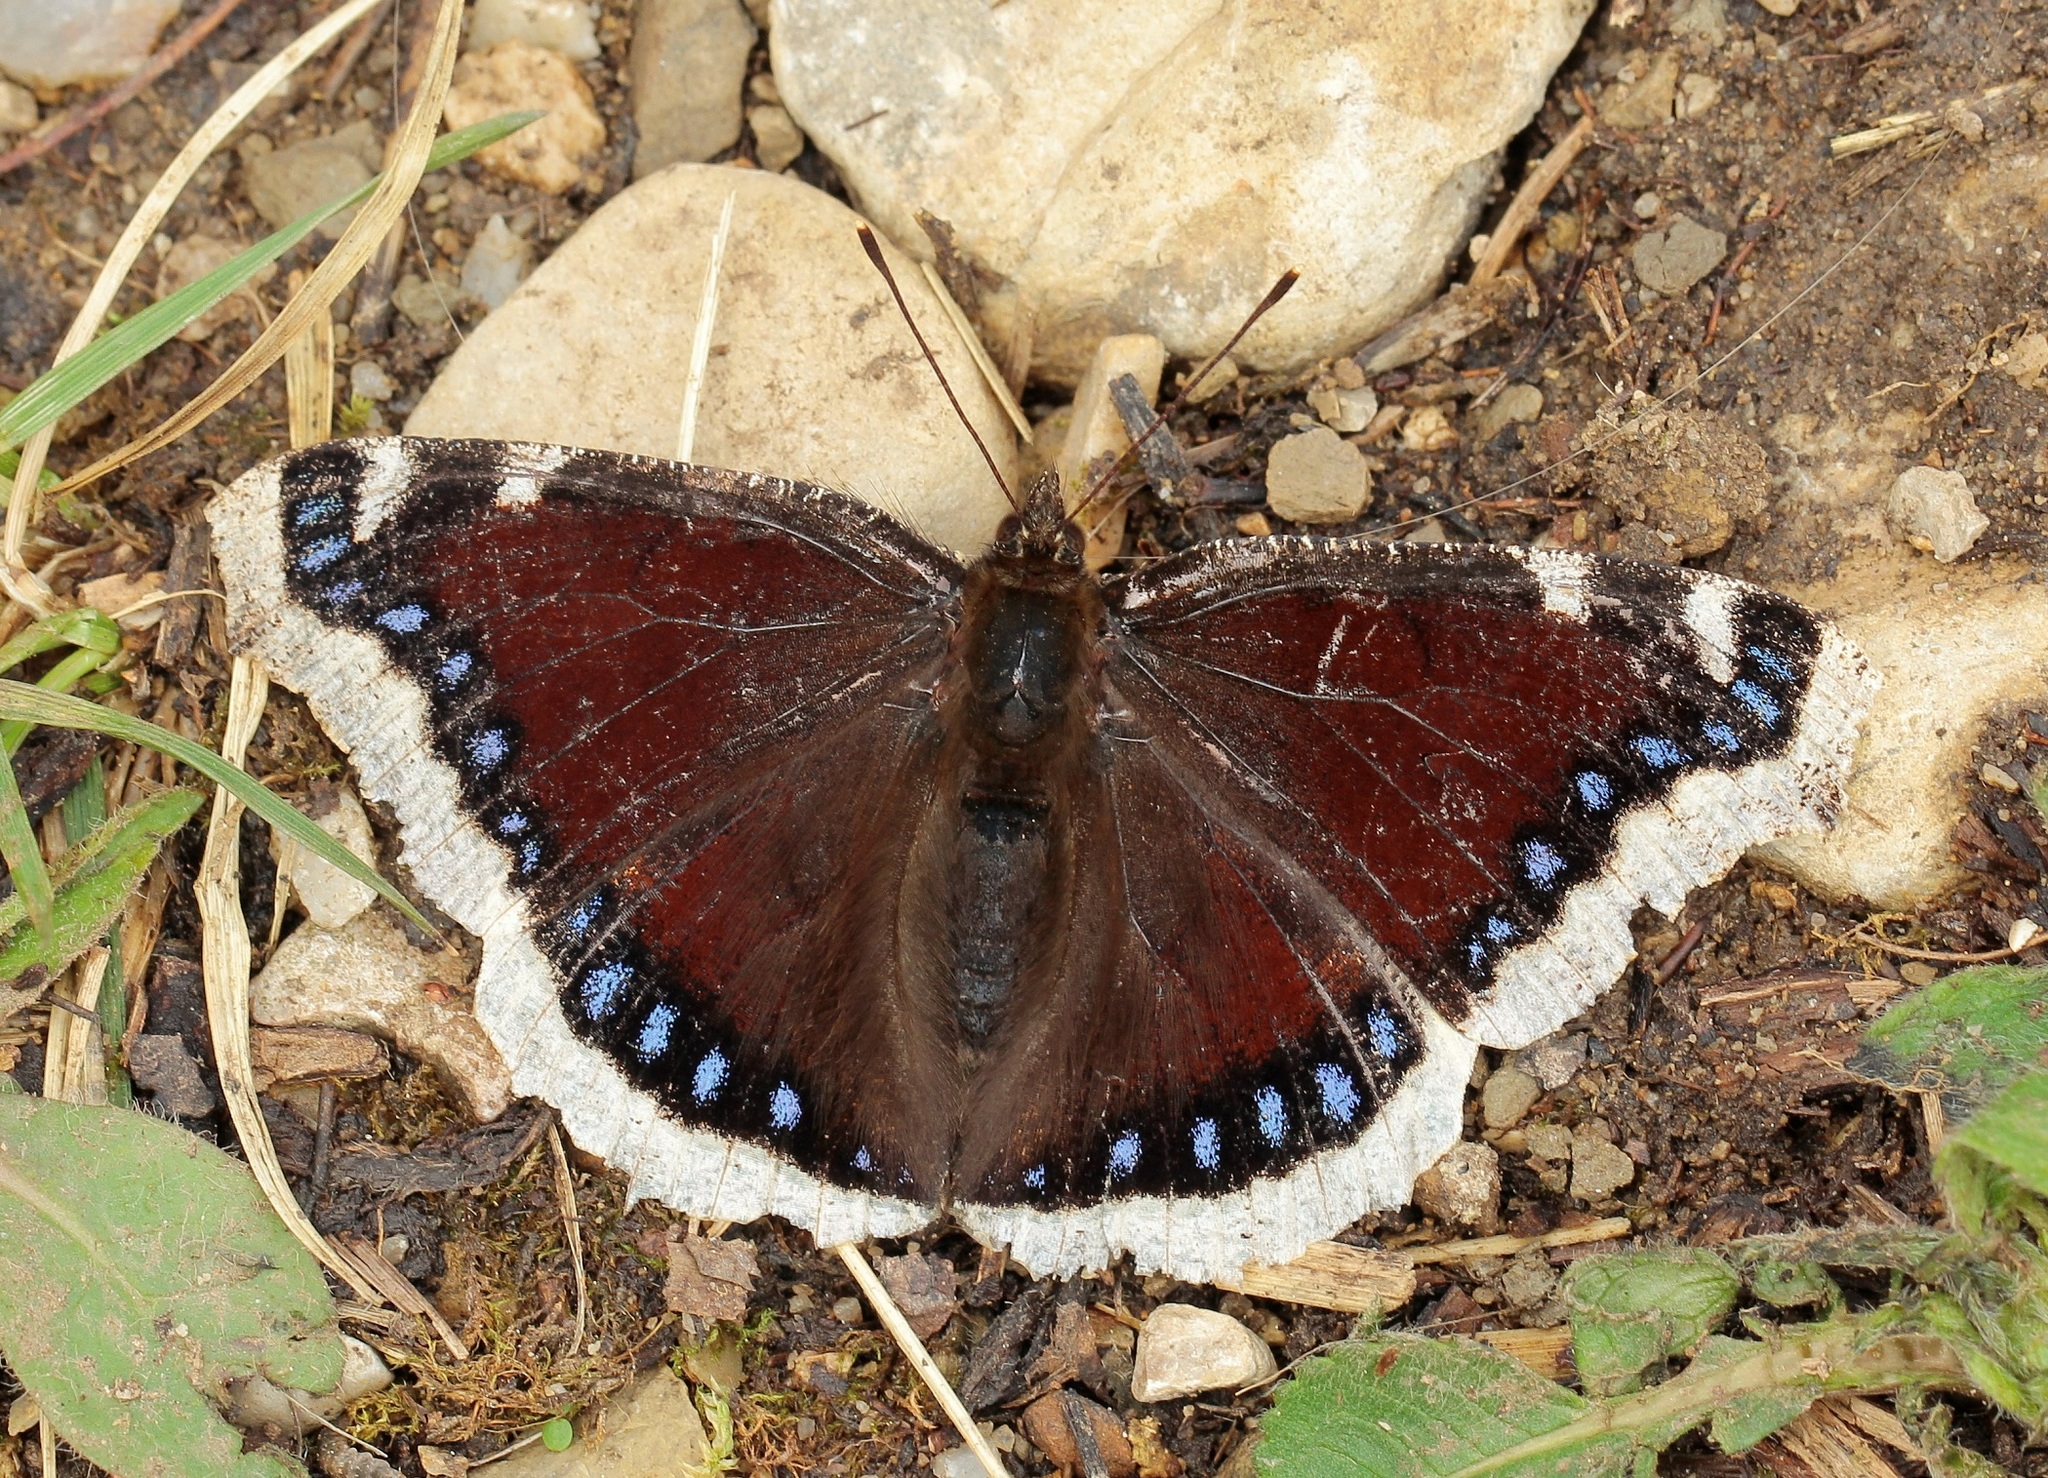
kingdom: Animalia
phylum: Arthropoda
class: Insecta
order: Lepidoptera
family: Nymphalidae
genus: Nymphalis
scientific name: Nymphalis antiopa
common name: Camberwell beauty
